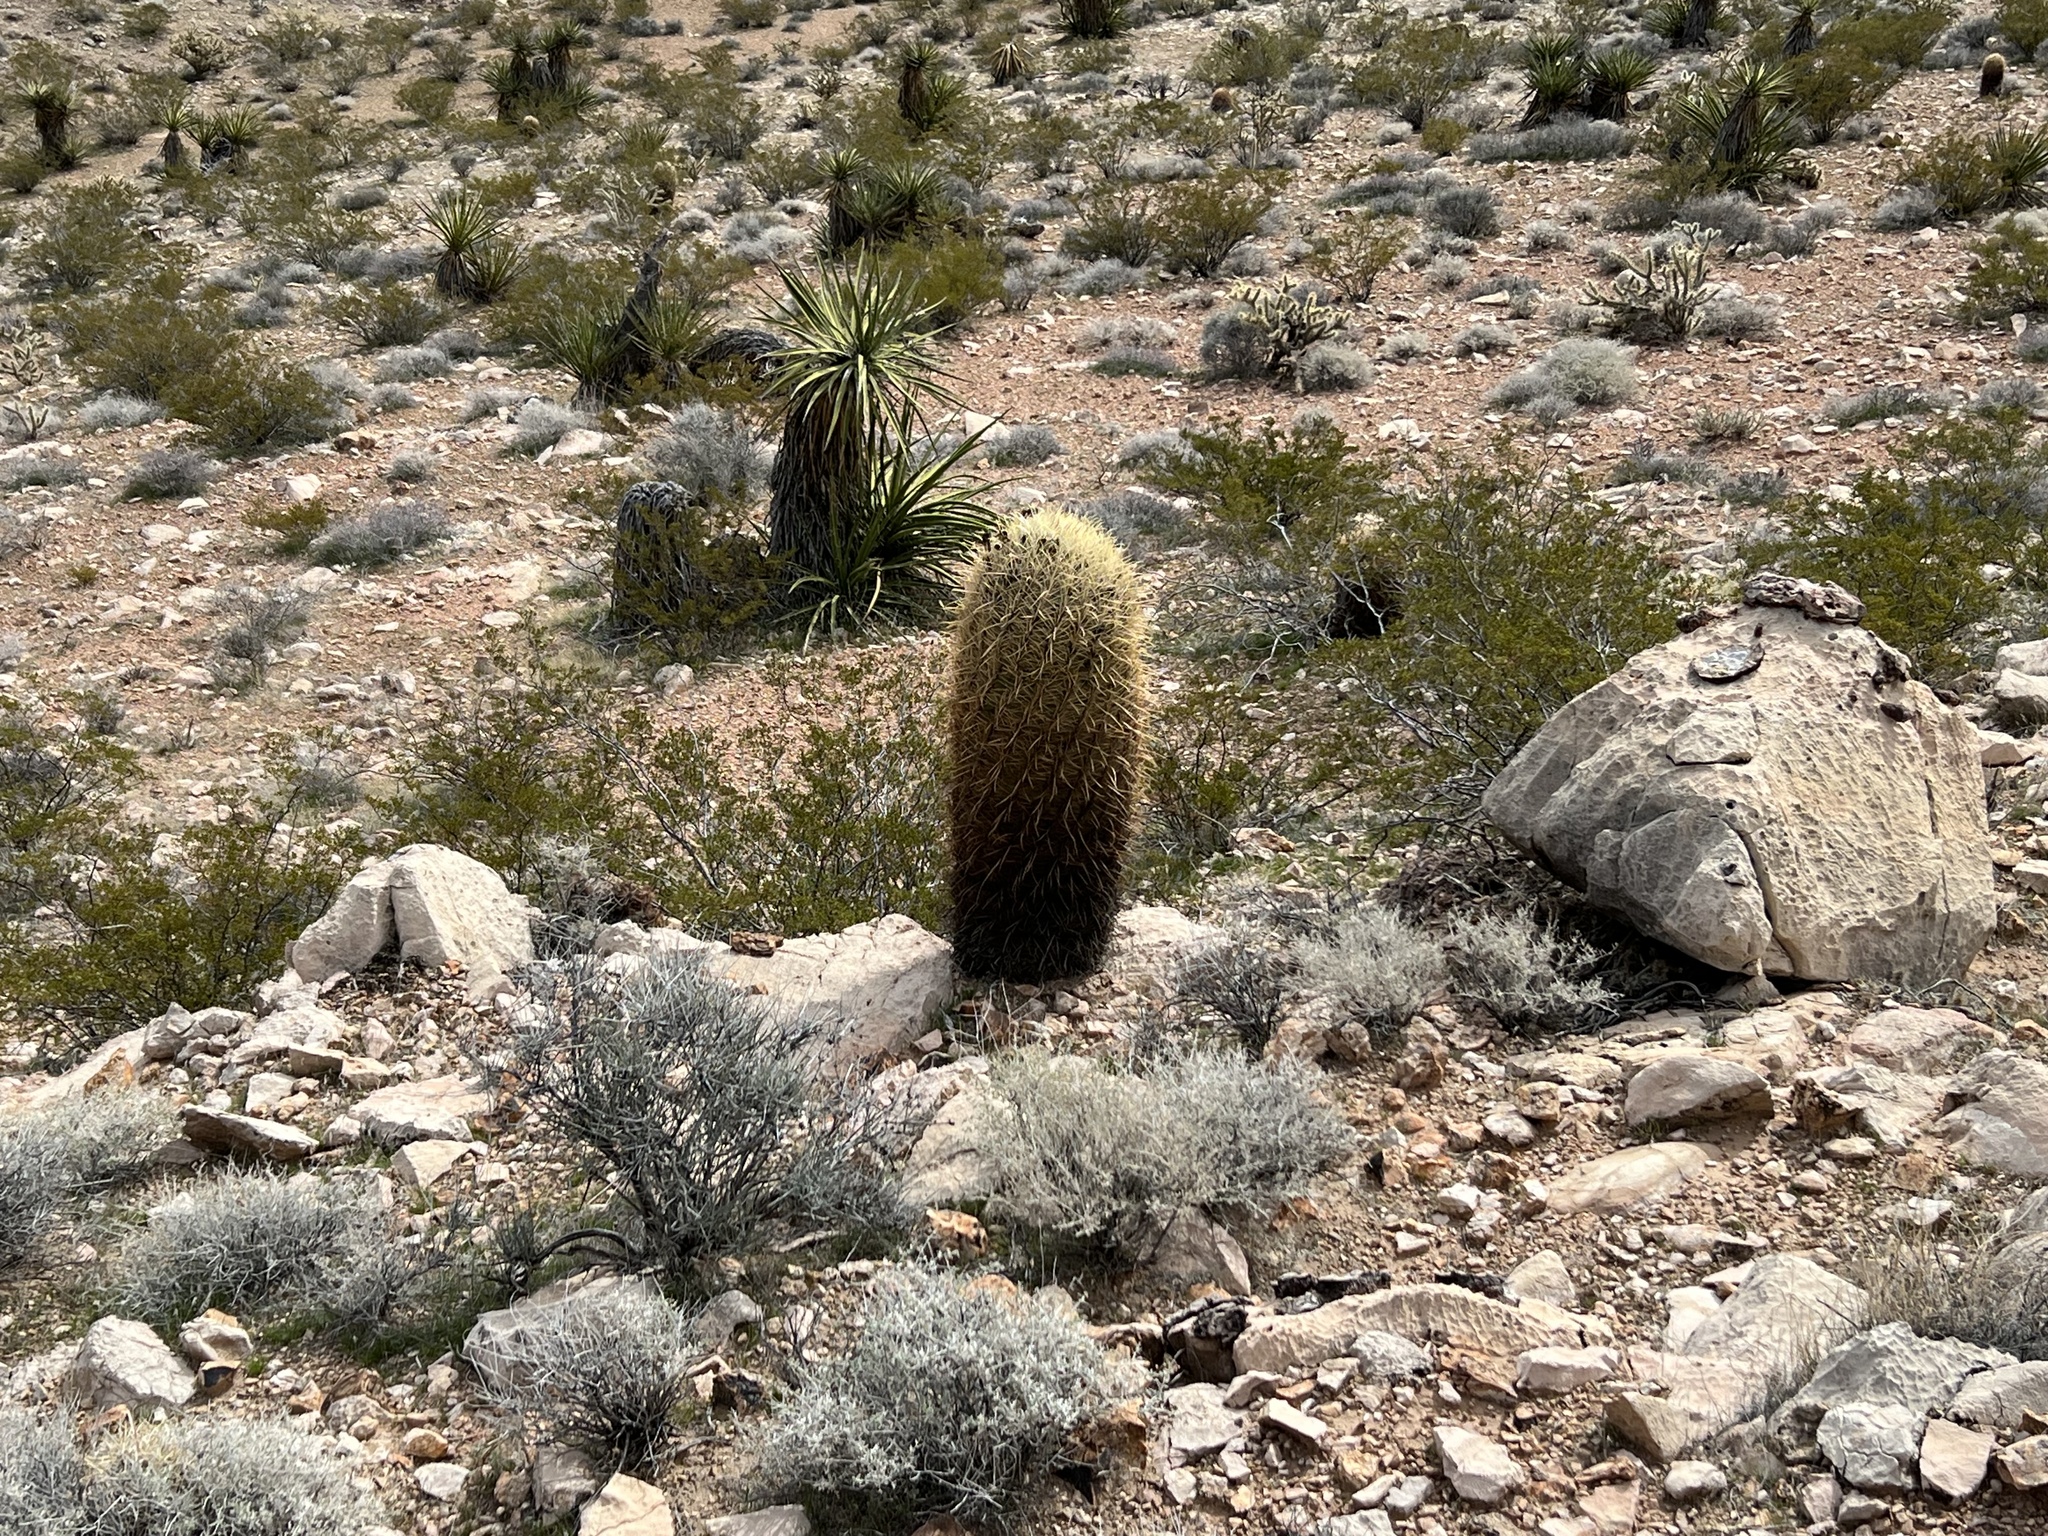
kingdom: Plantae
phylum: Tracheophyta
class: Magnoliopsida
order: Caryophyllales
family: Cactaceae
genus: Ferocactus
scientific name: Ferocactus cylindraceus
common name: California barrel cactus
